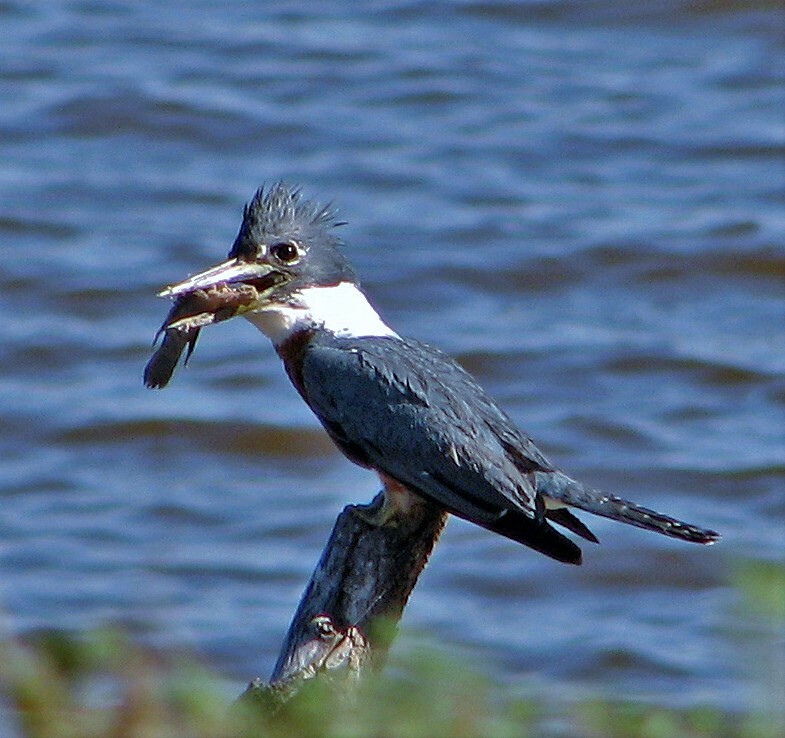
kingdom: Animalia
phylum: Chordata
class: Aves
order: Coraciiformes
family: Alcedinidae
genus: Megaceryle
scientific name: Megaceryle torquata
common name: Ringed kingfisher
